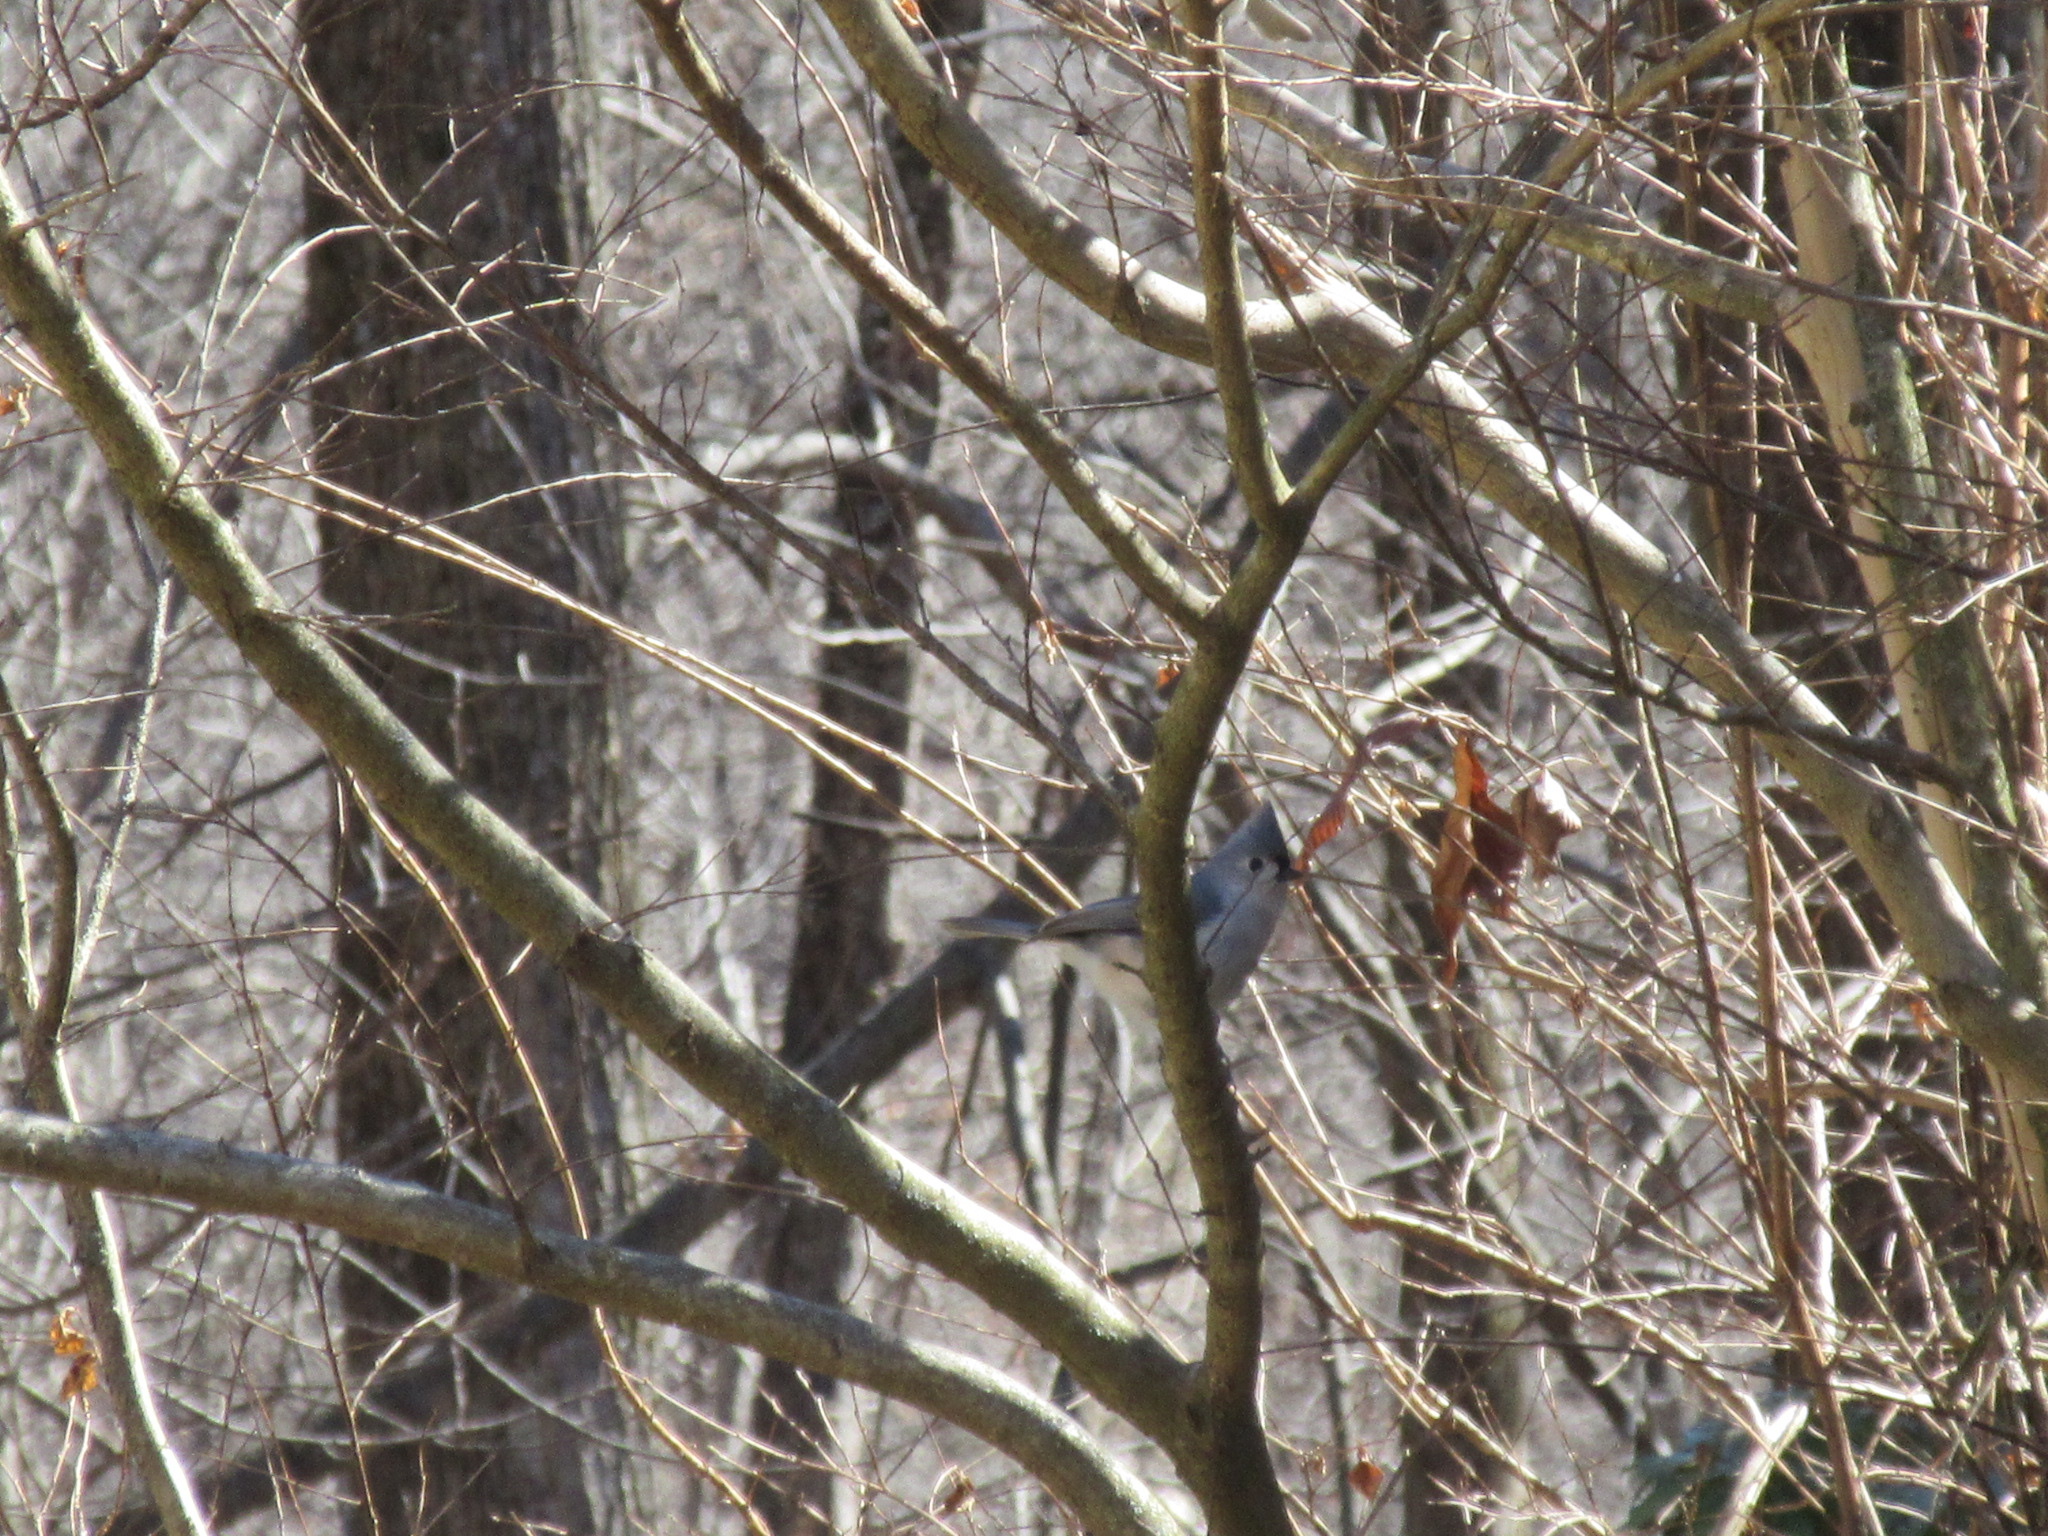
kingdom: Animalia
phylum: Chordata
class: Aves
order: Passeriformes
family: Paridae
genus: Baeolophus
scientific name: Baeolophus bicolor
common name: Tufted titmouse
